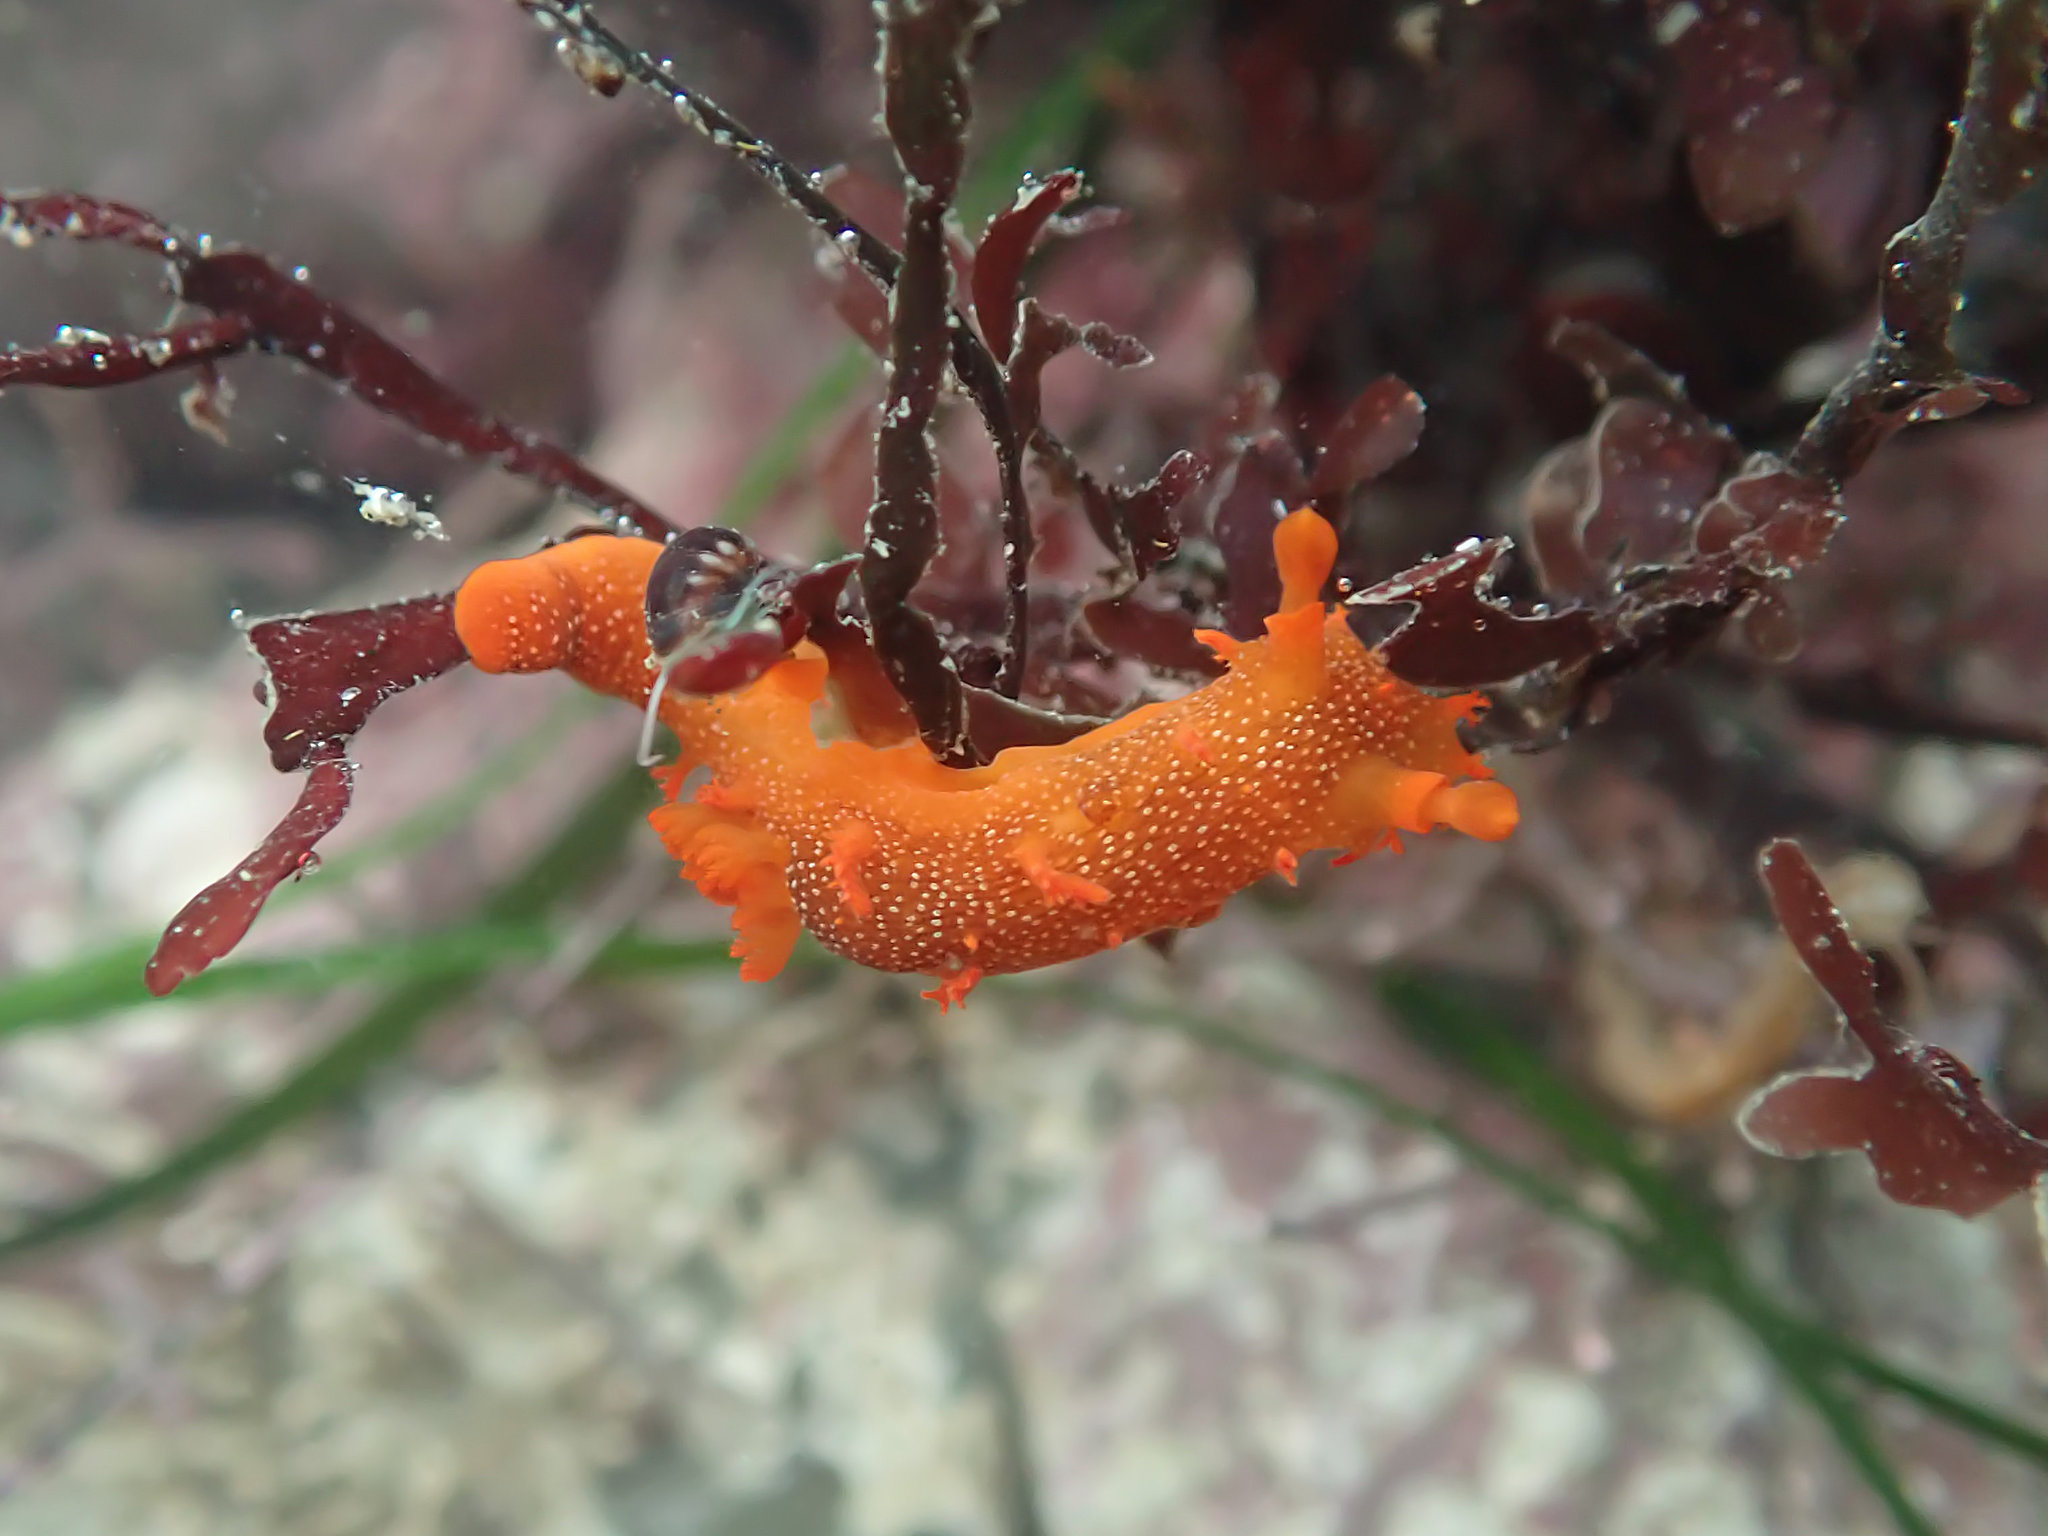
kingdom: Animalia
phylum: Mollusca
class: Gastropoda
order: Nudibranchia
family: Polyceridae
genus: Triopha
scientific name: Triopha maculata
